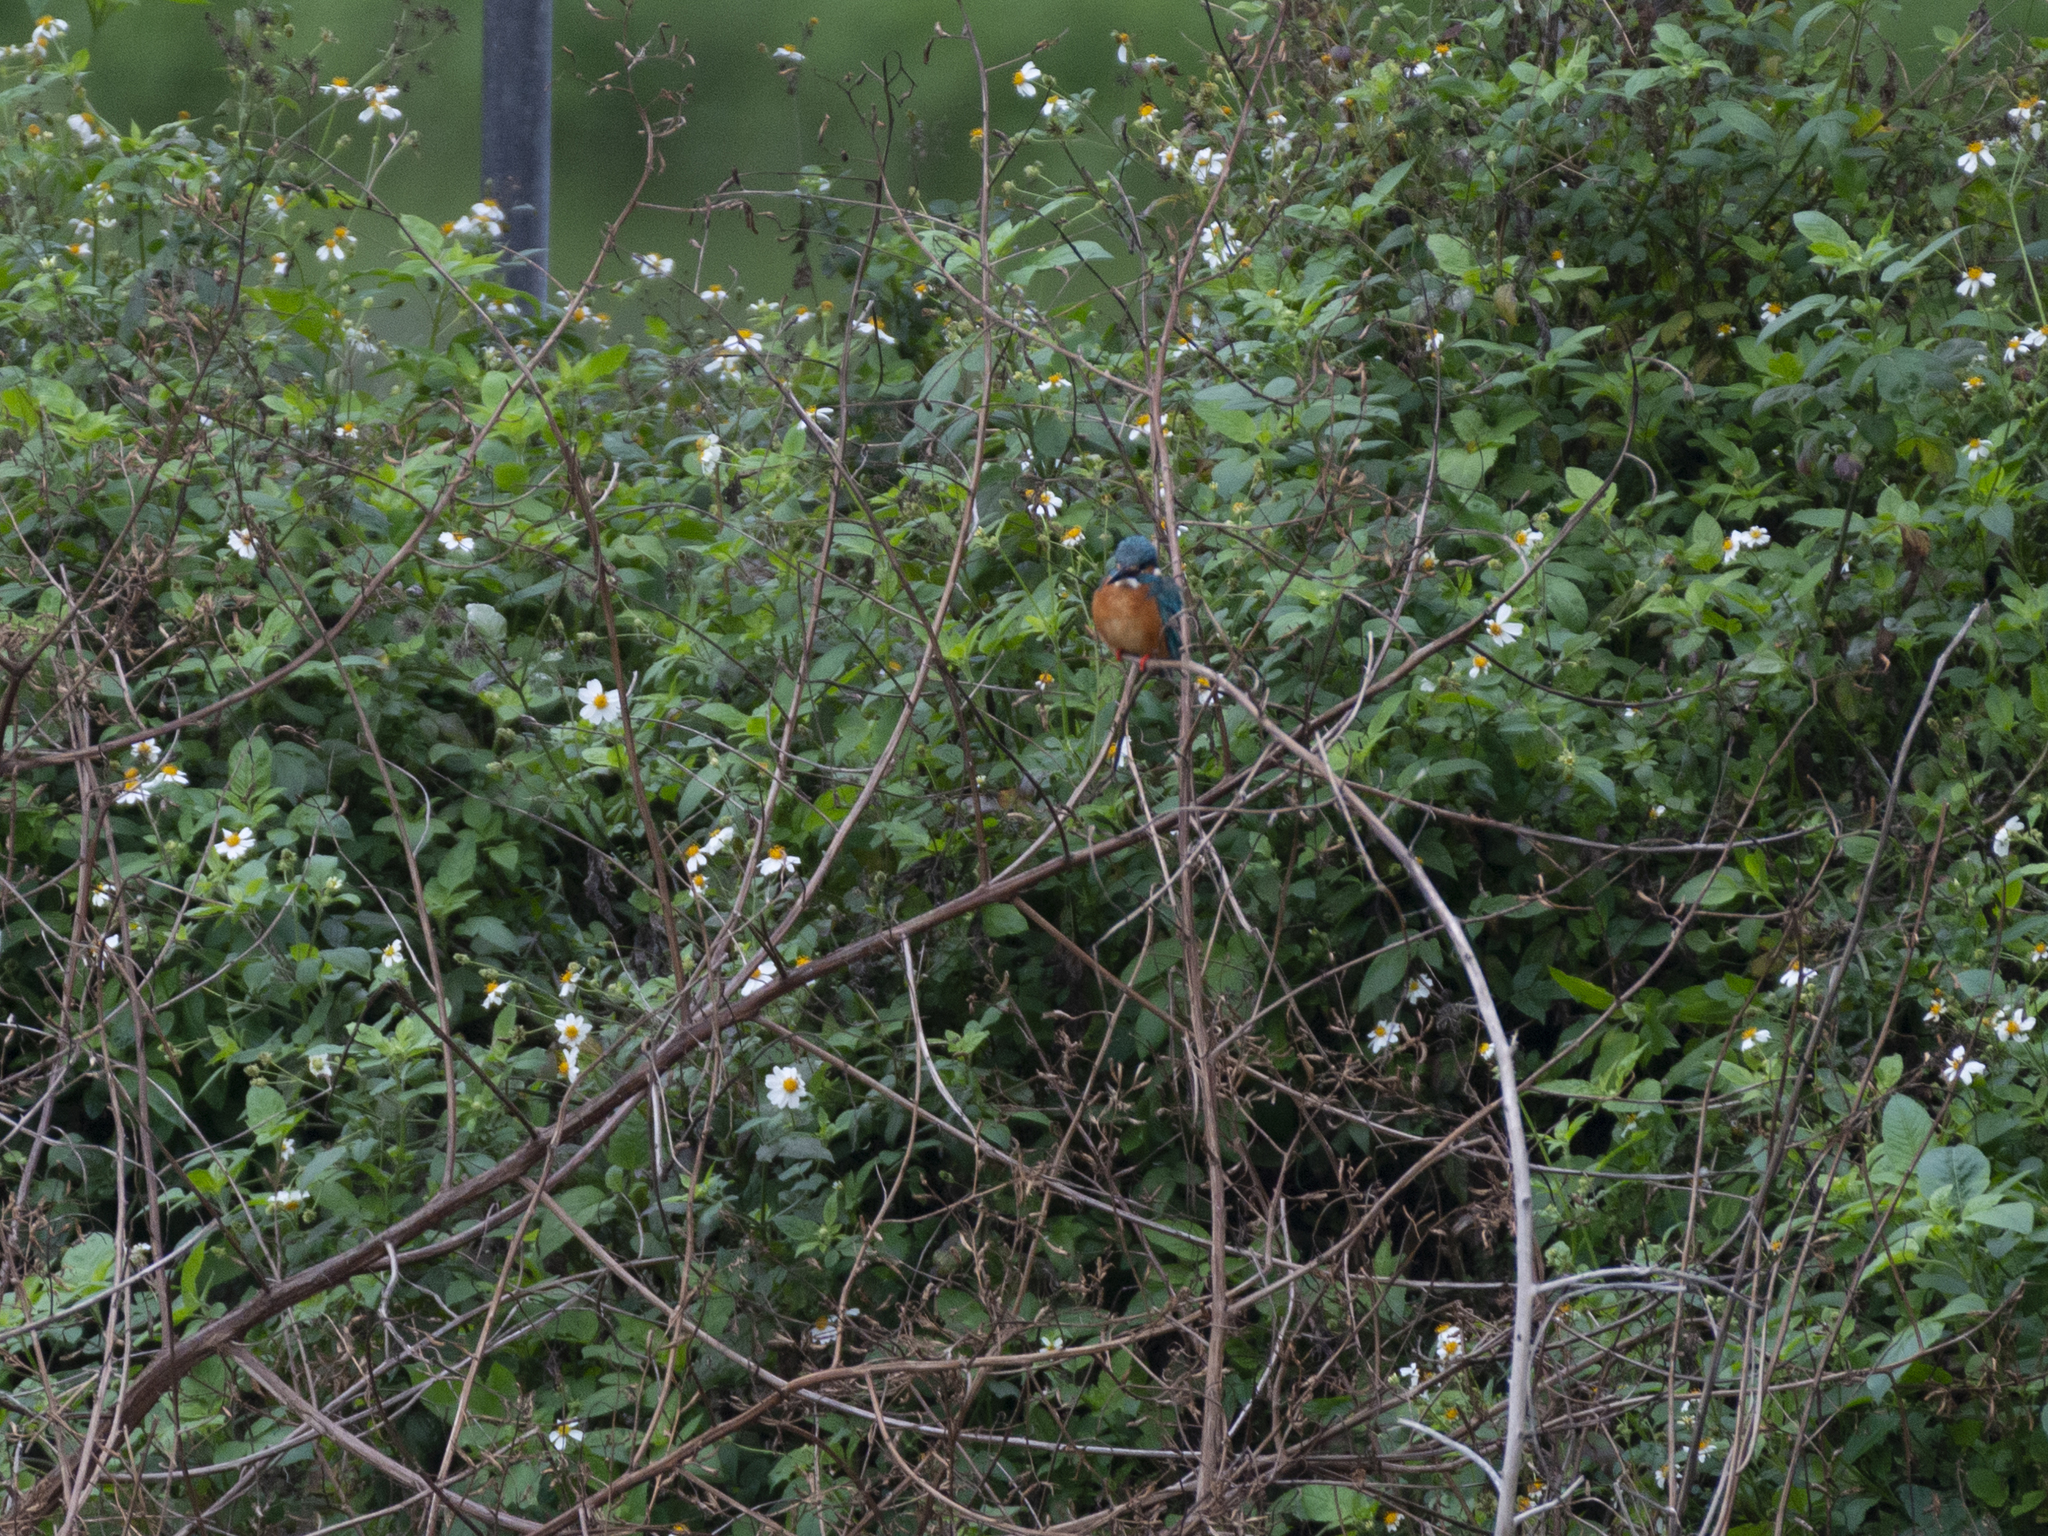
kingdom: Animalia
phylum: Chordata
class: Aves
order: Coraciiformes
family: Alcedinidae
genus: Alcedo
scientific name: Alcedo atthis
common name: Common kingfisher
